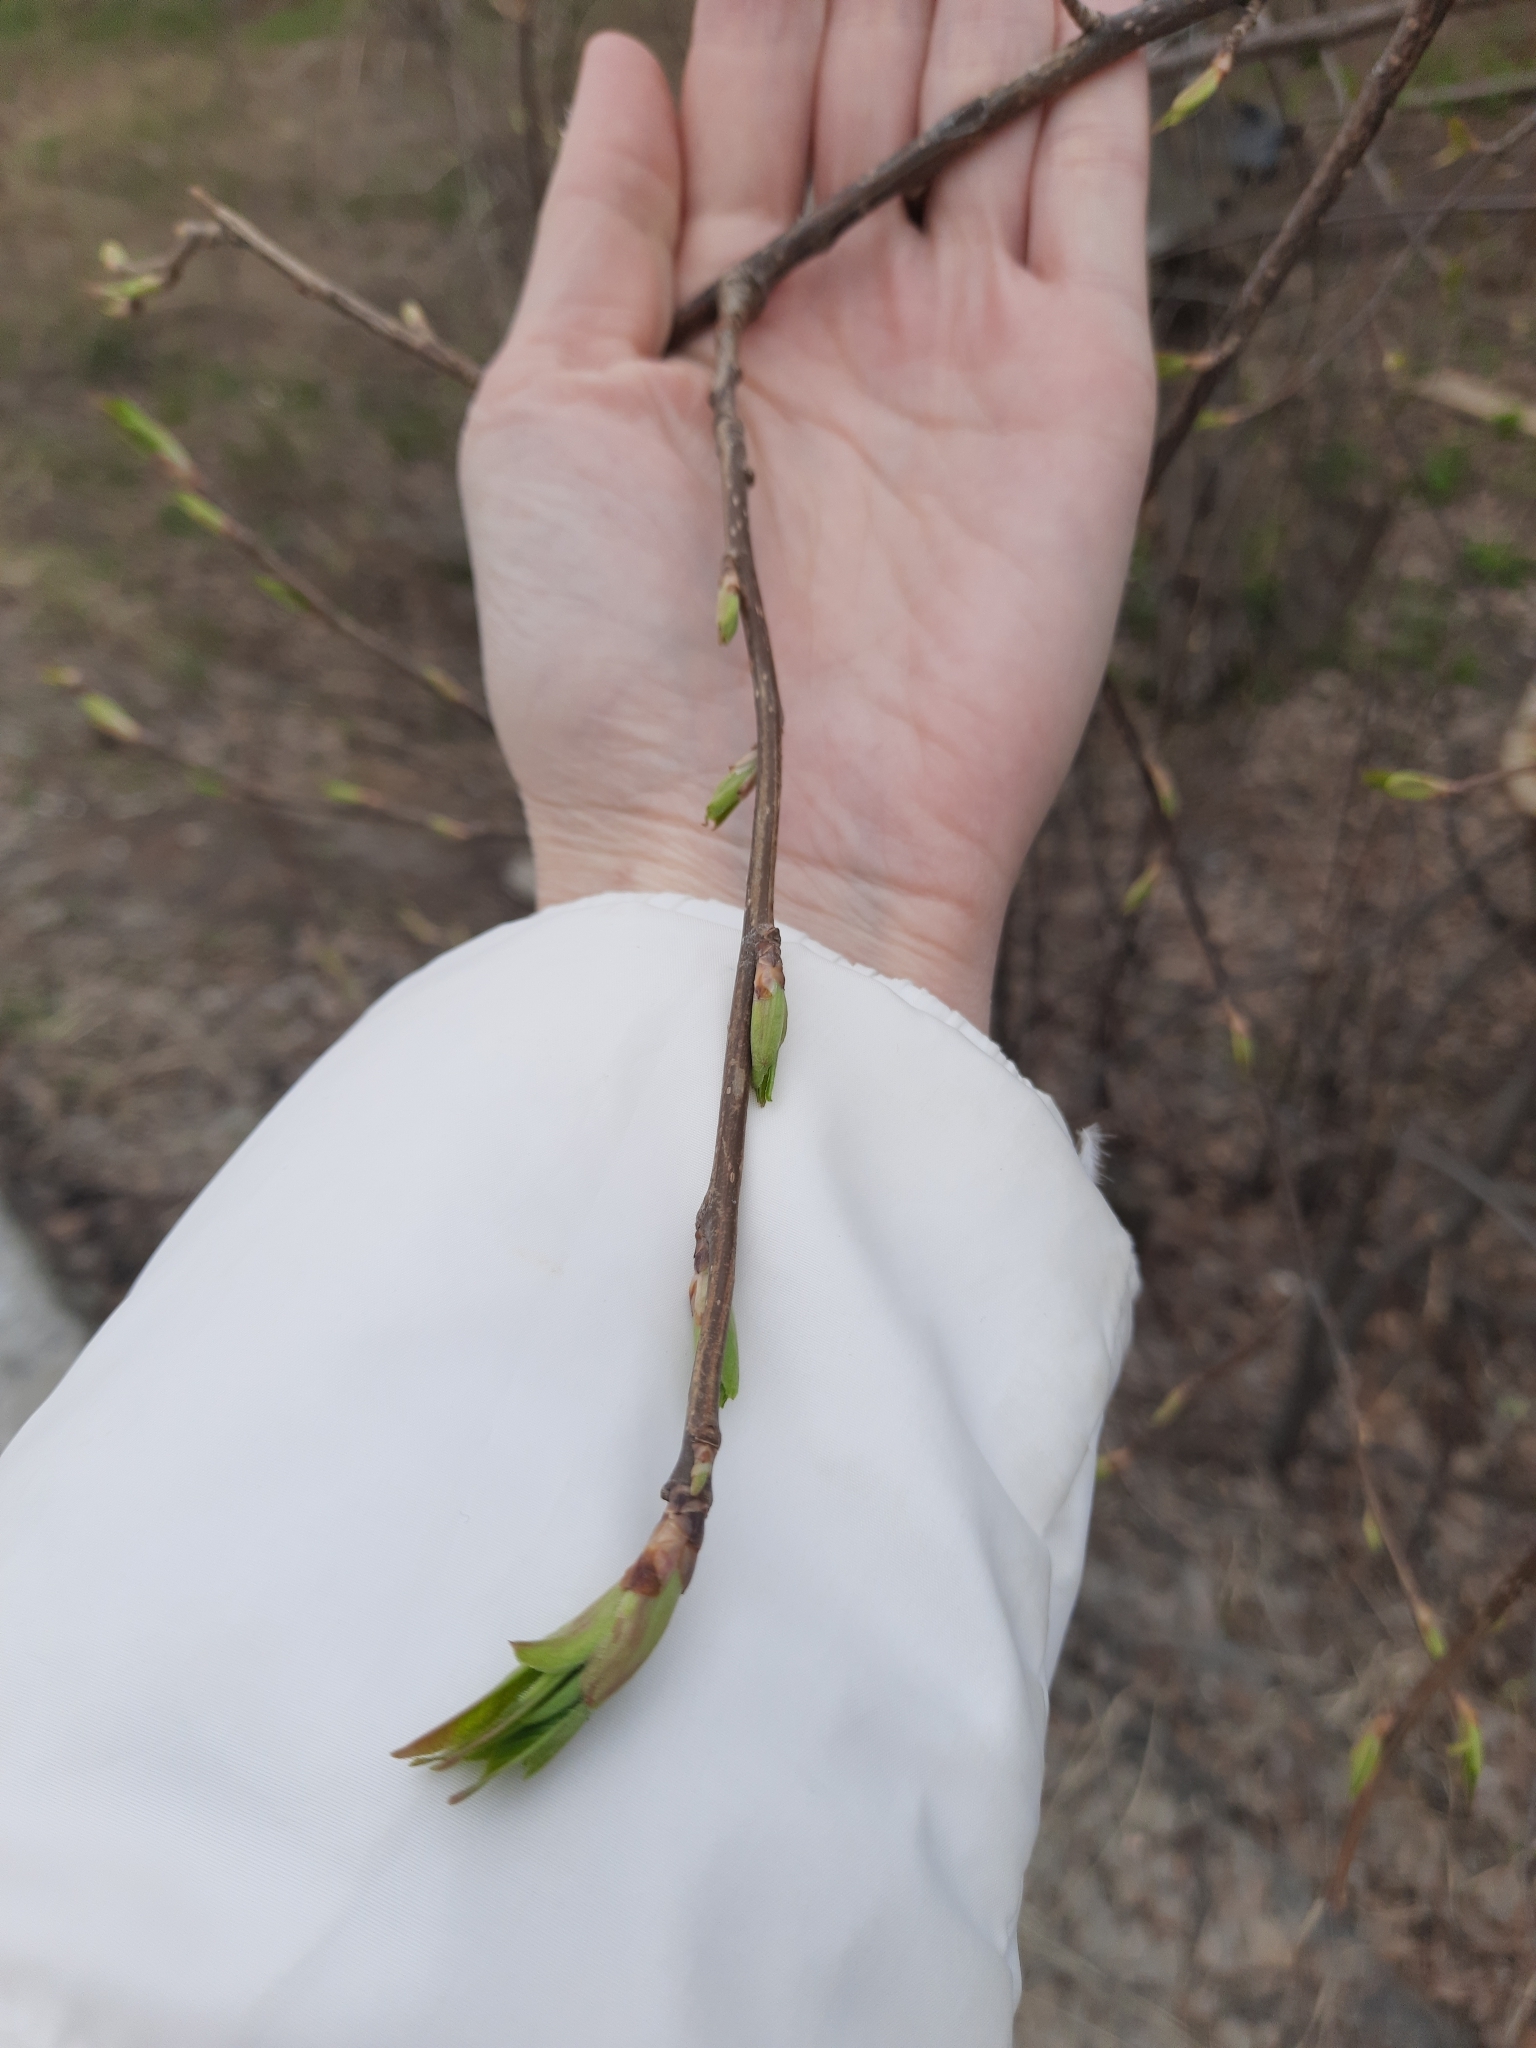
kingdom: Plantae
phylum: Tracheophyta
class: Magnoliopsida
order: Rosales
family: Rosaceae
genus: Prunus
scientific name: Prunus padus
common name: Bird cherry
